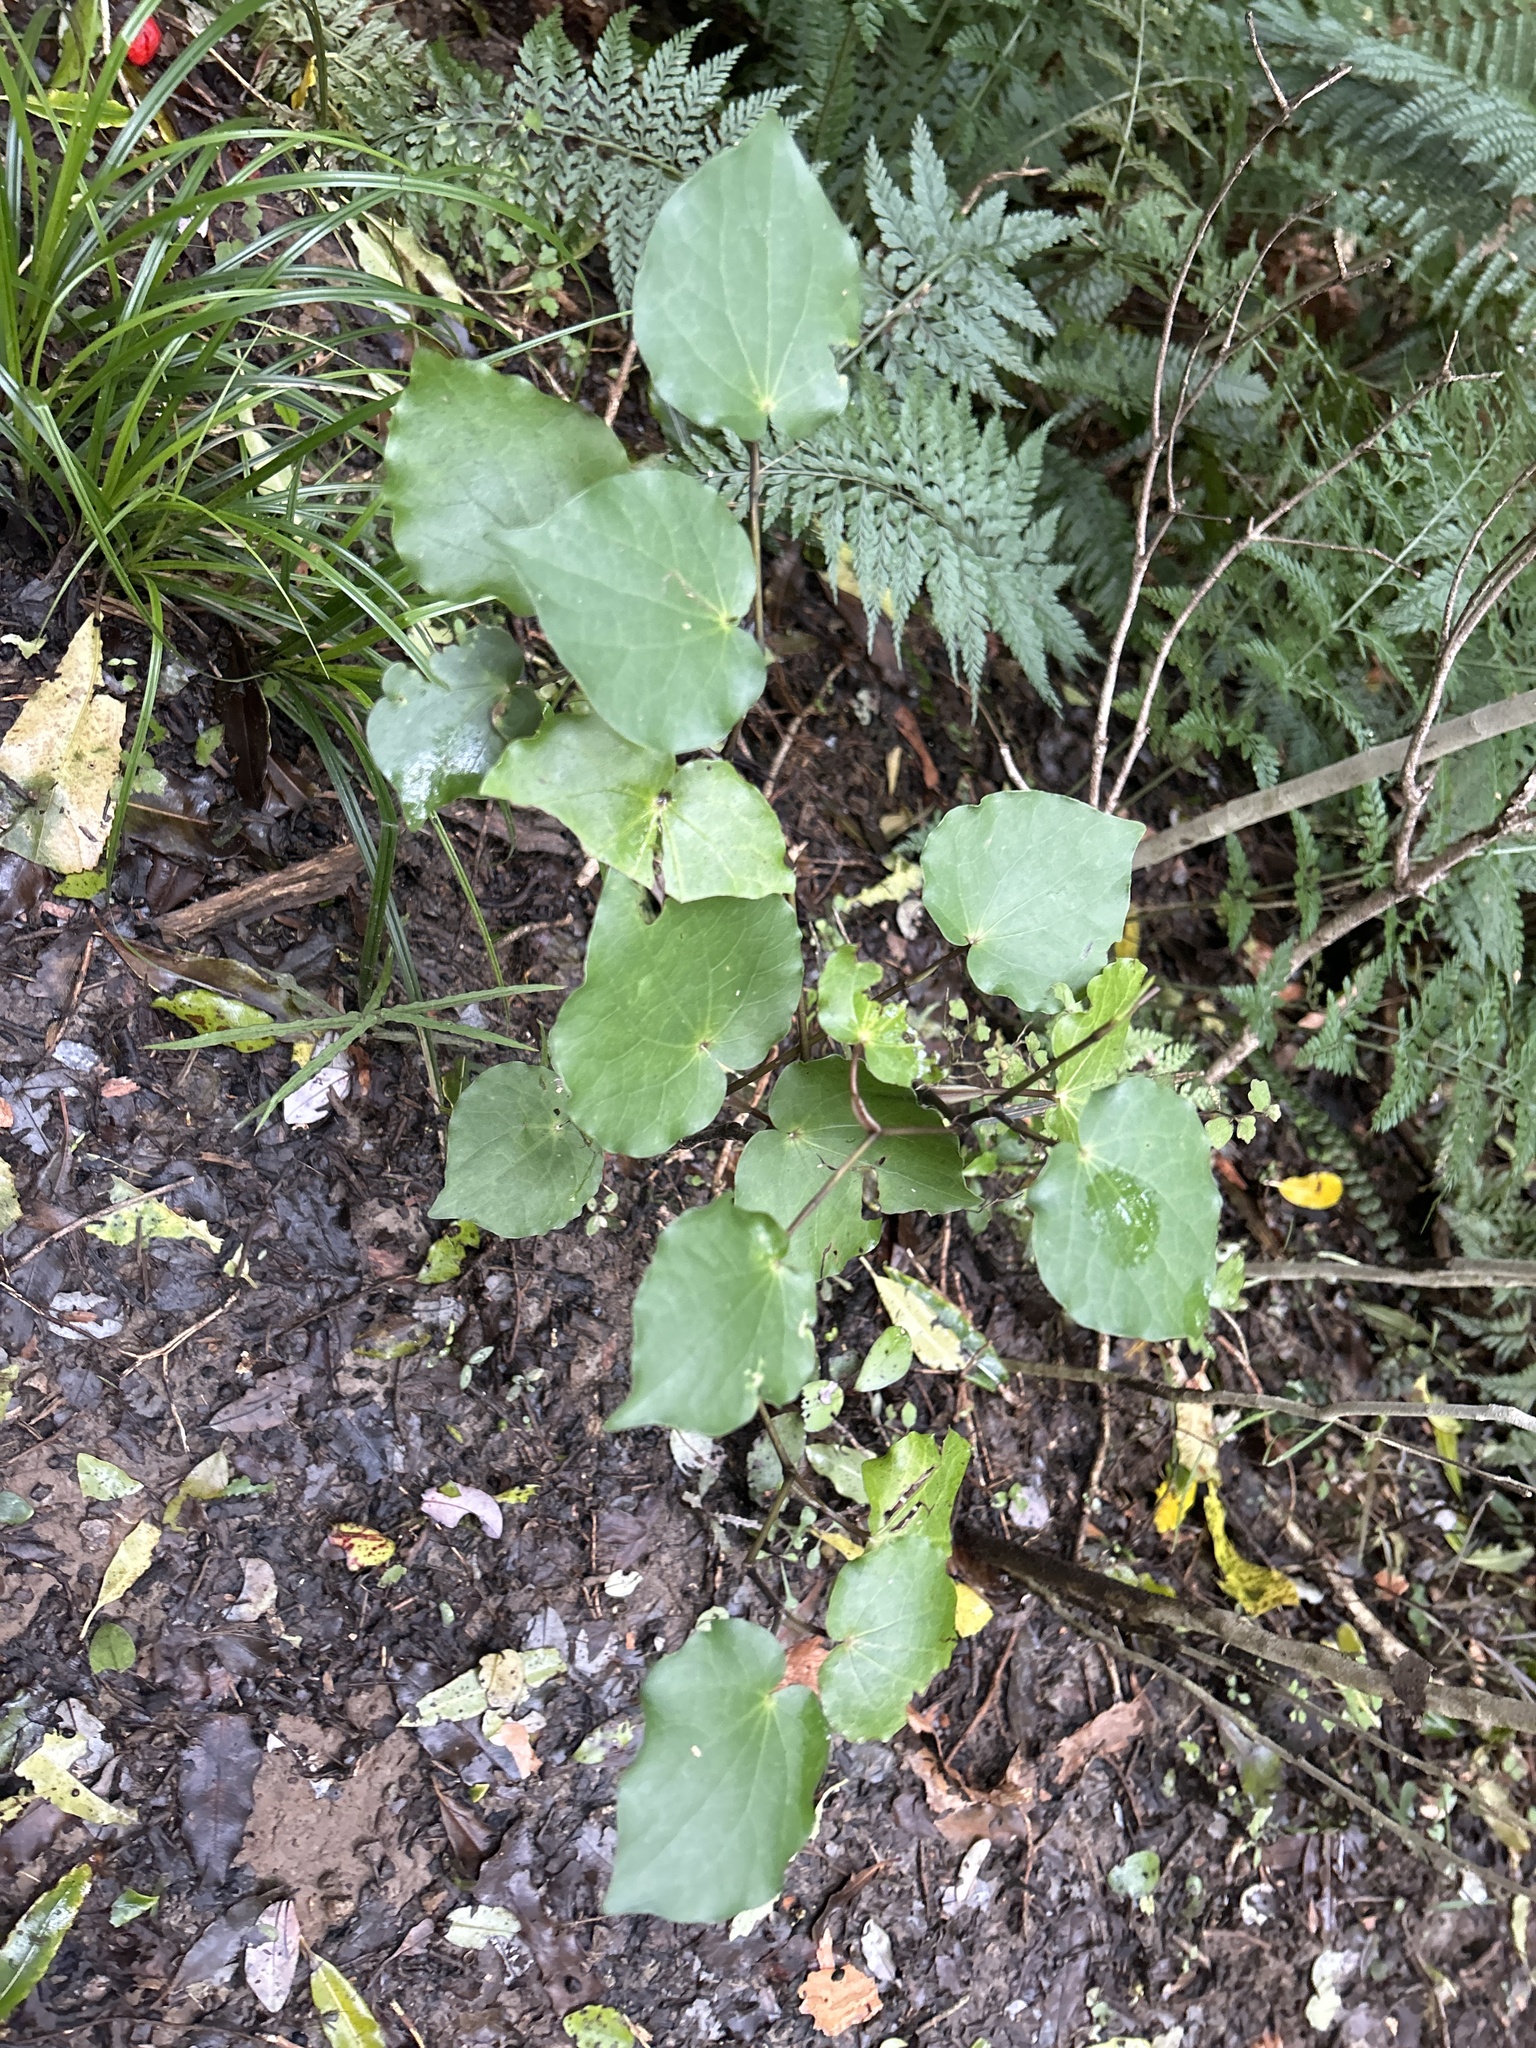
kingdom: Plantae
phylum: Tracheophyta
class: Magnoliopsida
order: Piperales
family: Piperaceae
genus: Macropiper
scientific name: Macropiper excelsum
